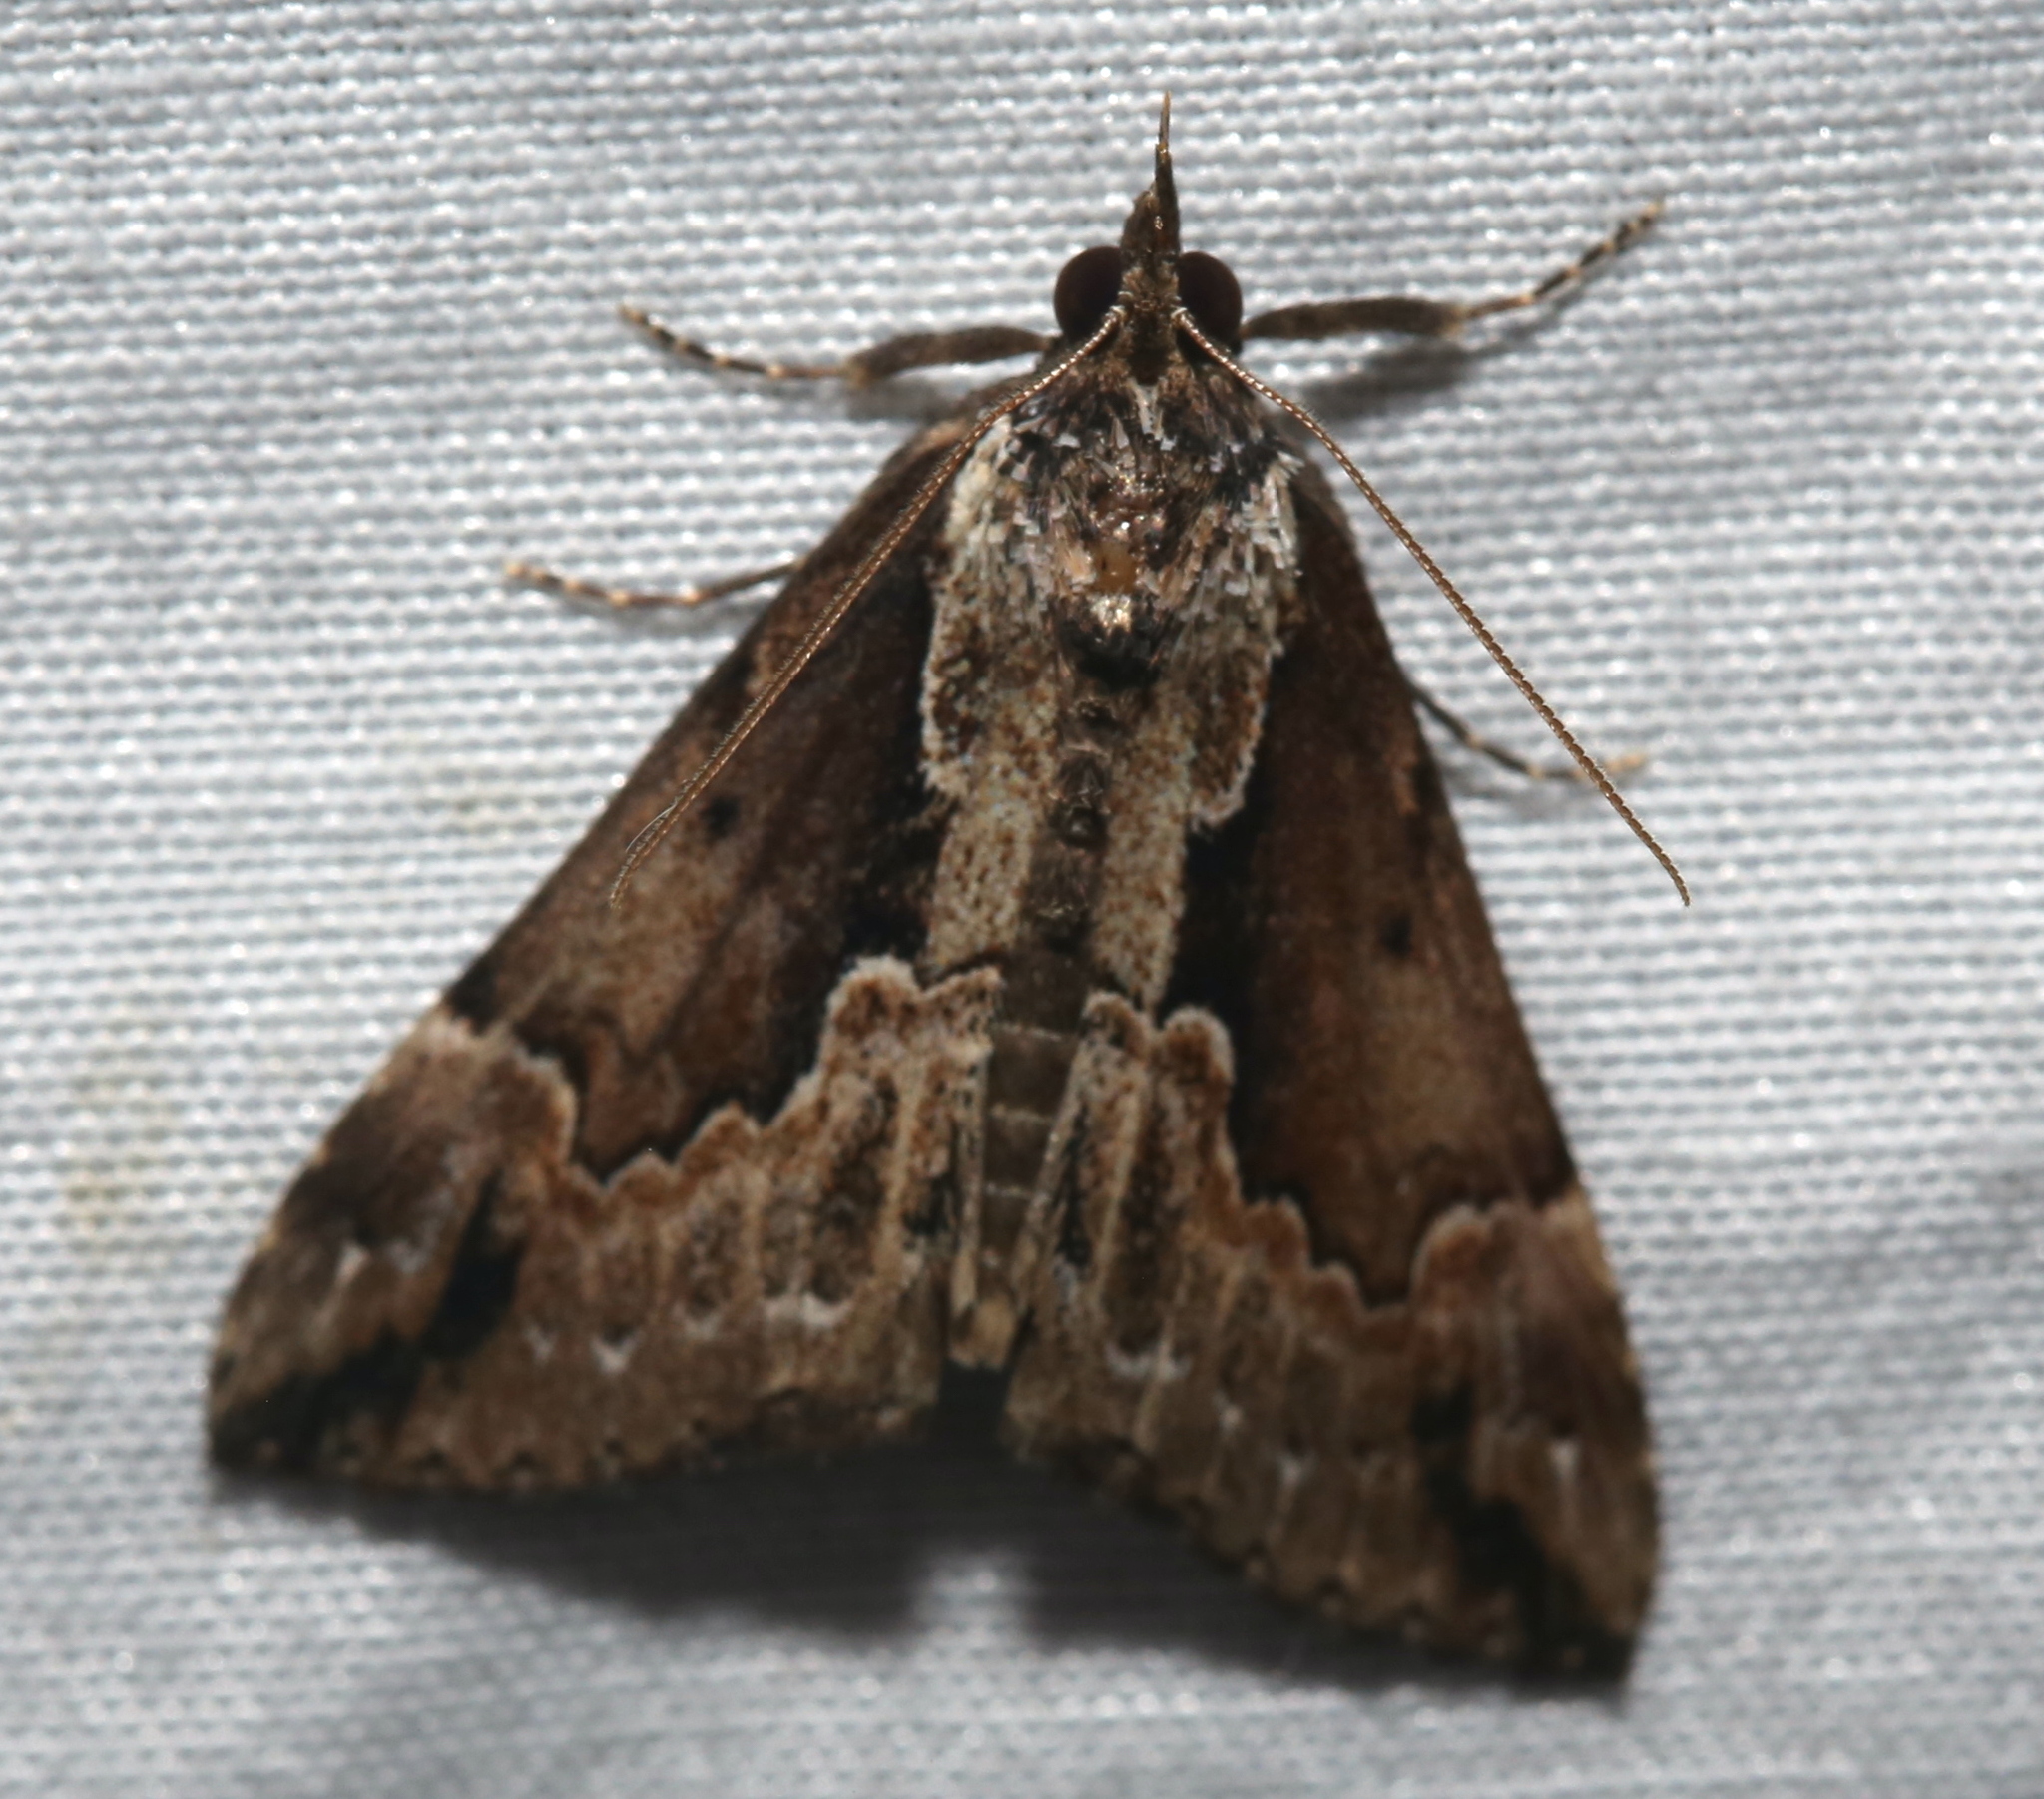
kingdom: Animalia
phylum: Arthropoda
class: Insecta
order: Lepidoptera
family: Erebidae
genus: Hypena
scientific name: Hypena baltimoralis
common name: Baltimore snout
